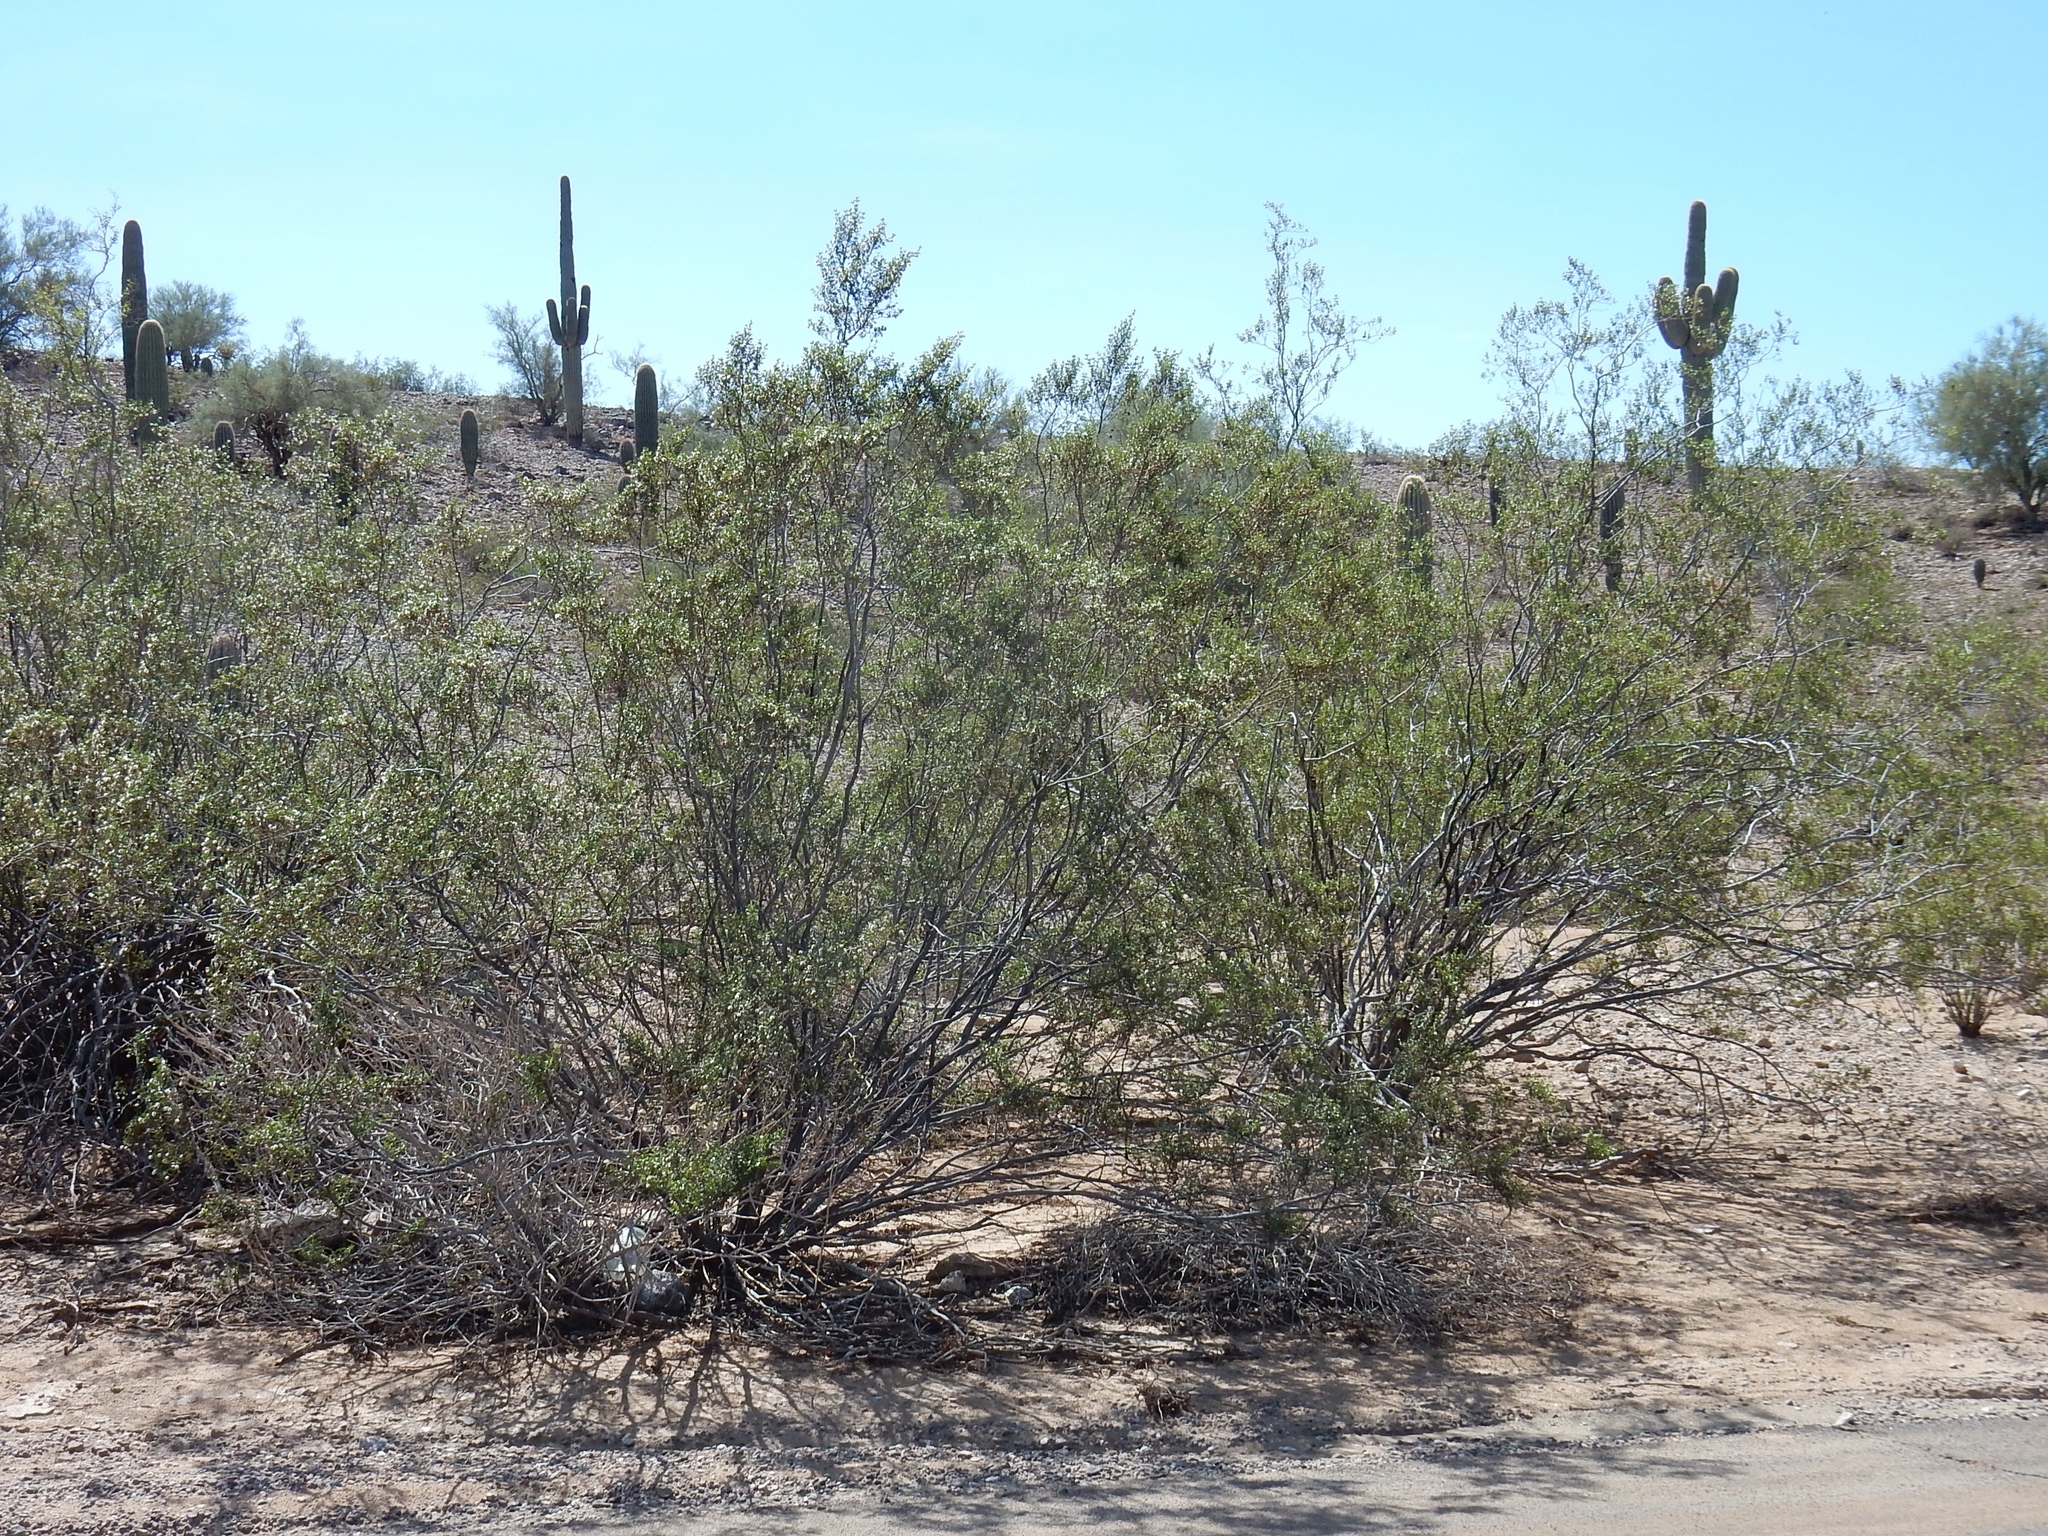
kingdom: Plantae
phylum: Tracheophyta
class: Magnoliopsida
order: Zygophyllales
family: Zygophyllaceae
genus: Larrea
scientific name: Larrea tridentata
